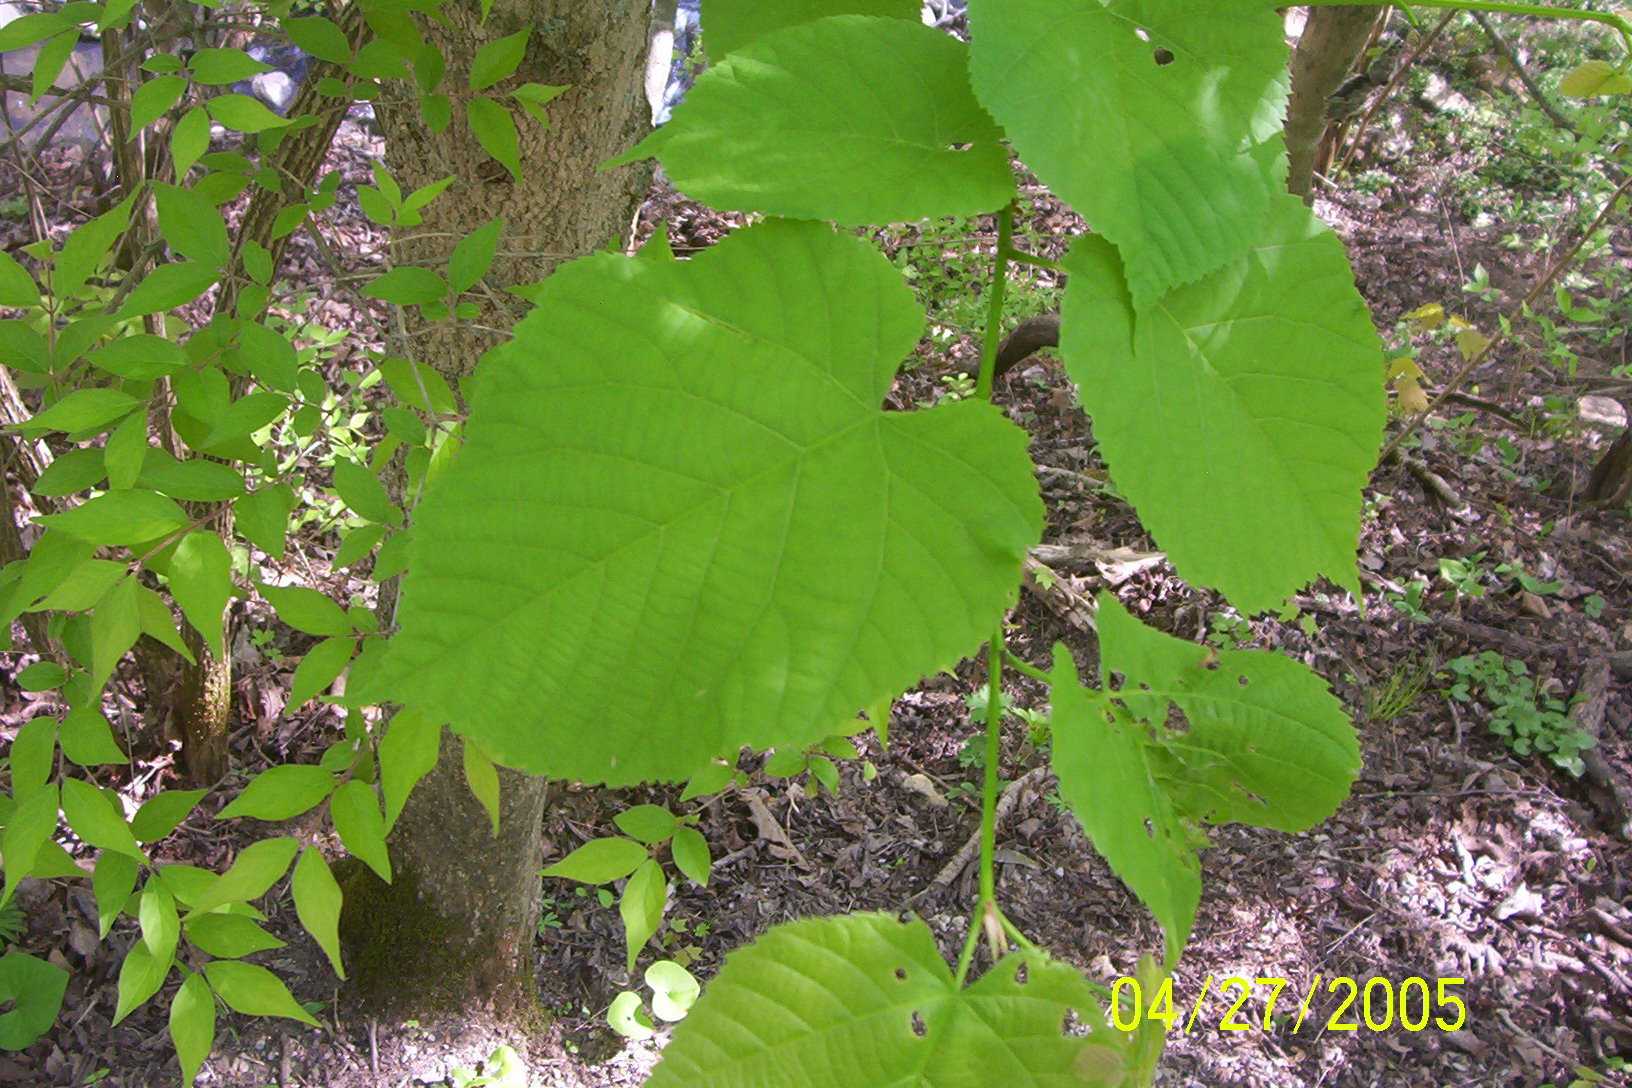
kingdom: Plantae
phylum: Tracheophyta
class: Magnoliopsida
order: Malvales
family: Malvaceae
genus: Tilia
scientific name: Tilia americana
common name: Basswood
